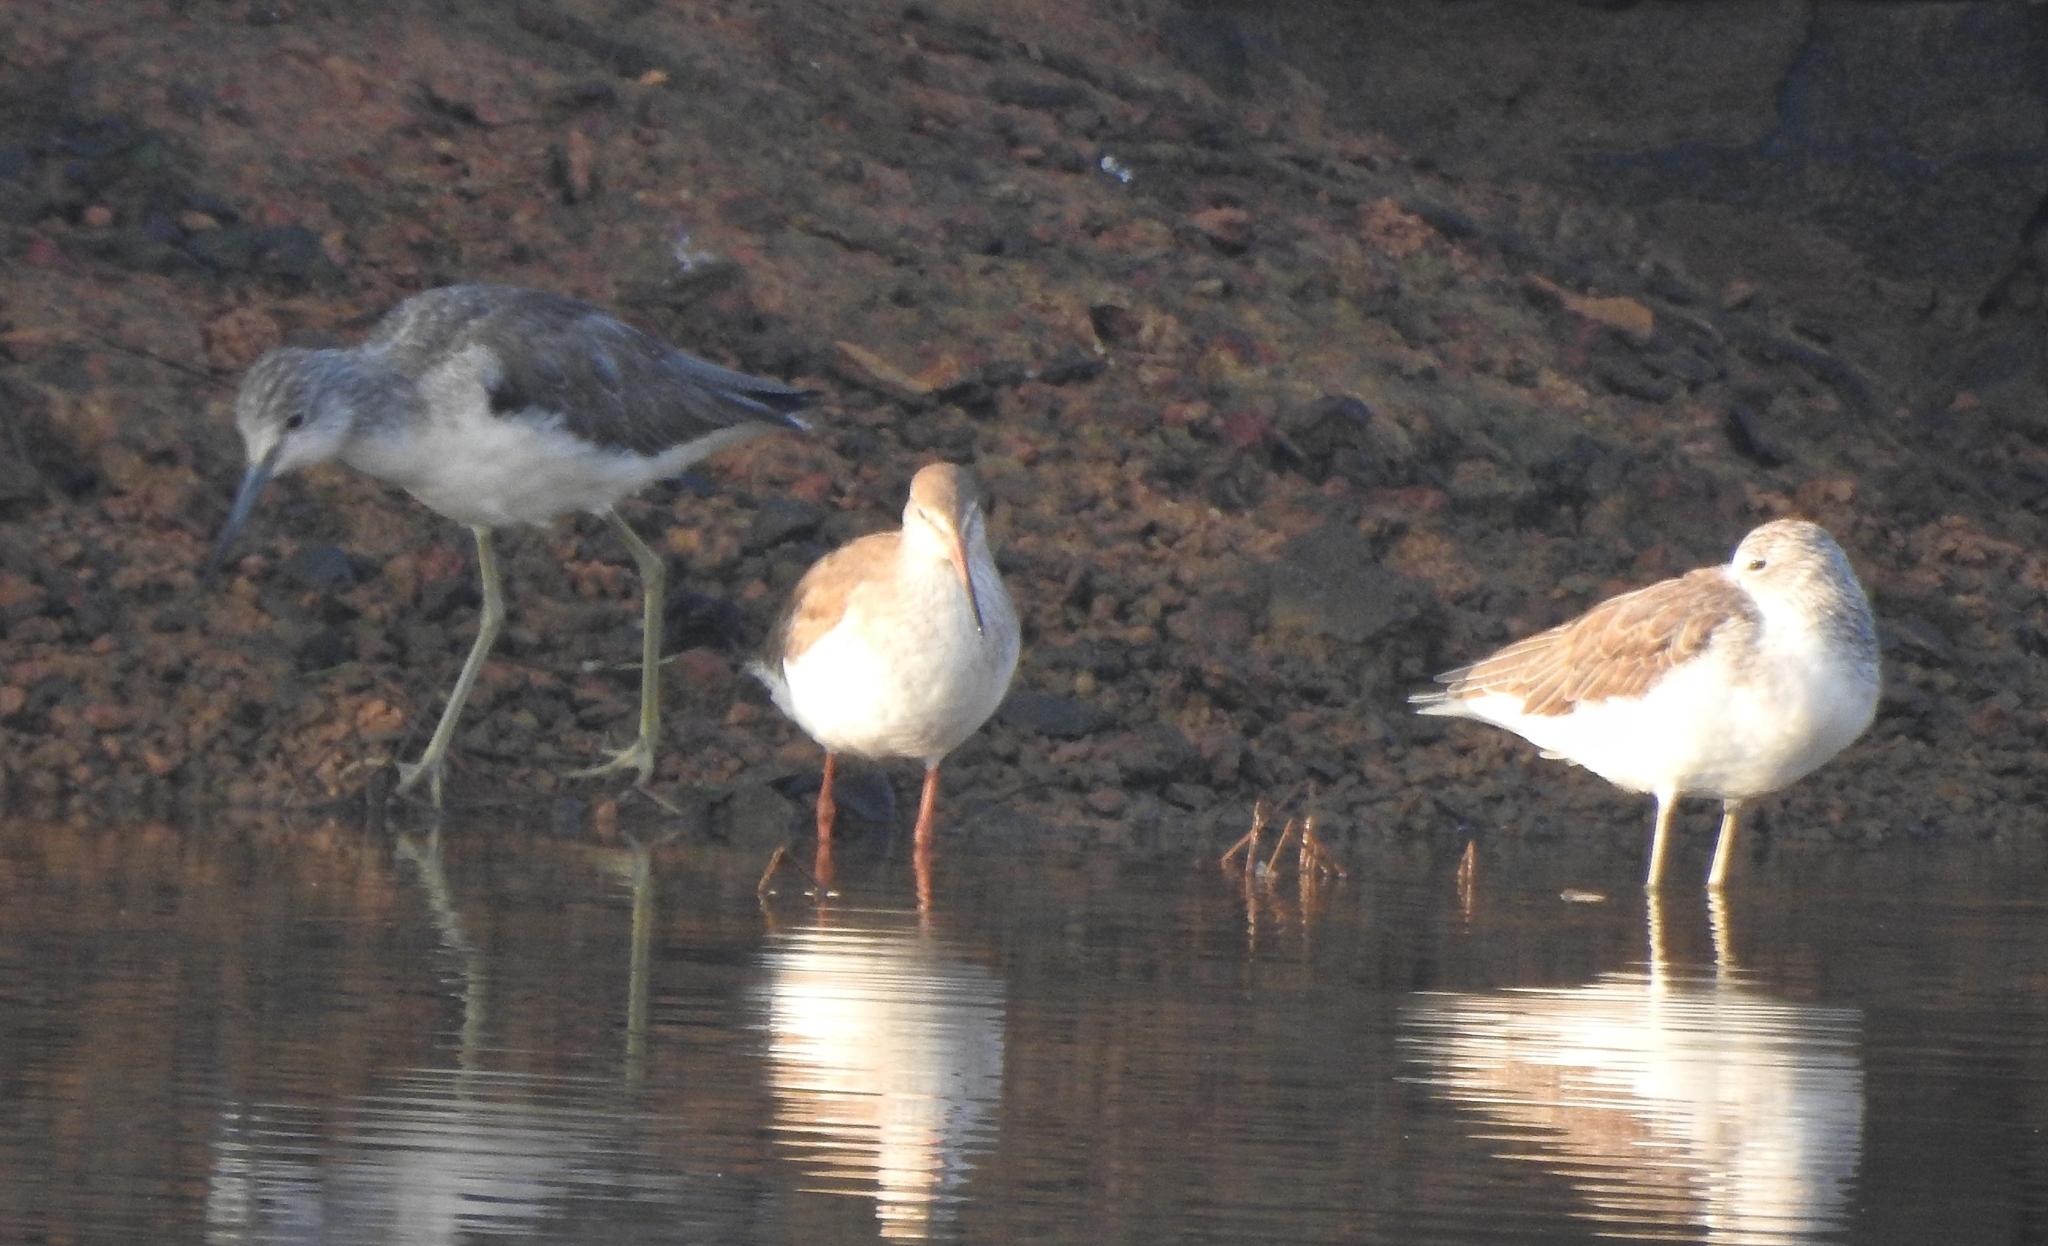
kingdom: Animalia
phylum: Chordata
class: Aves
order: Charadriiformes
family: Scolopacidae
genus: Tringa
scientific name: Tringa totanus
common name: Common redshank
